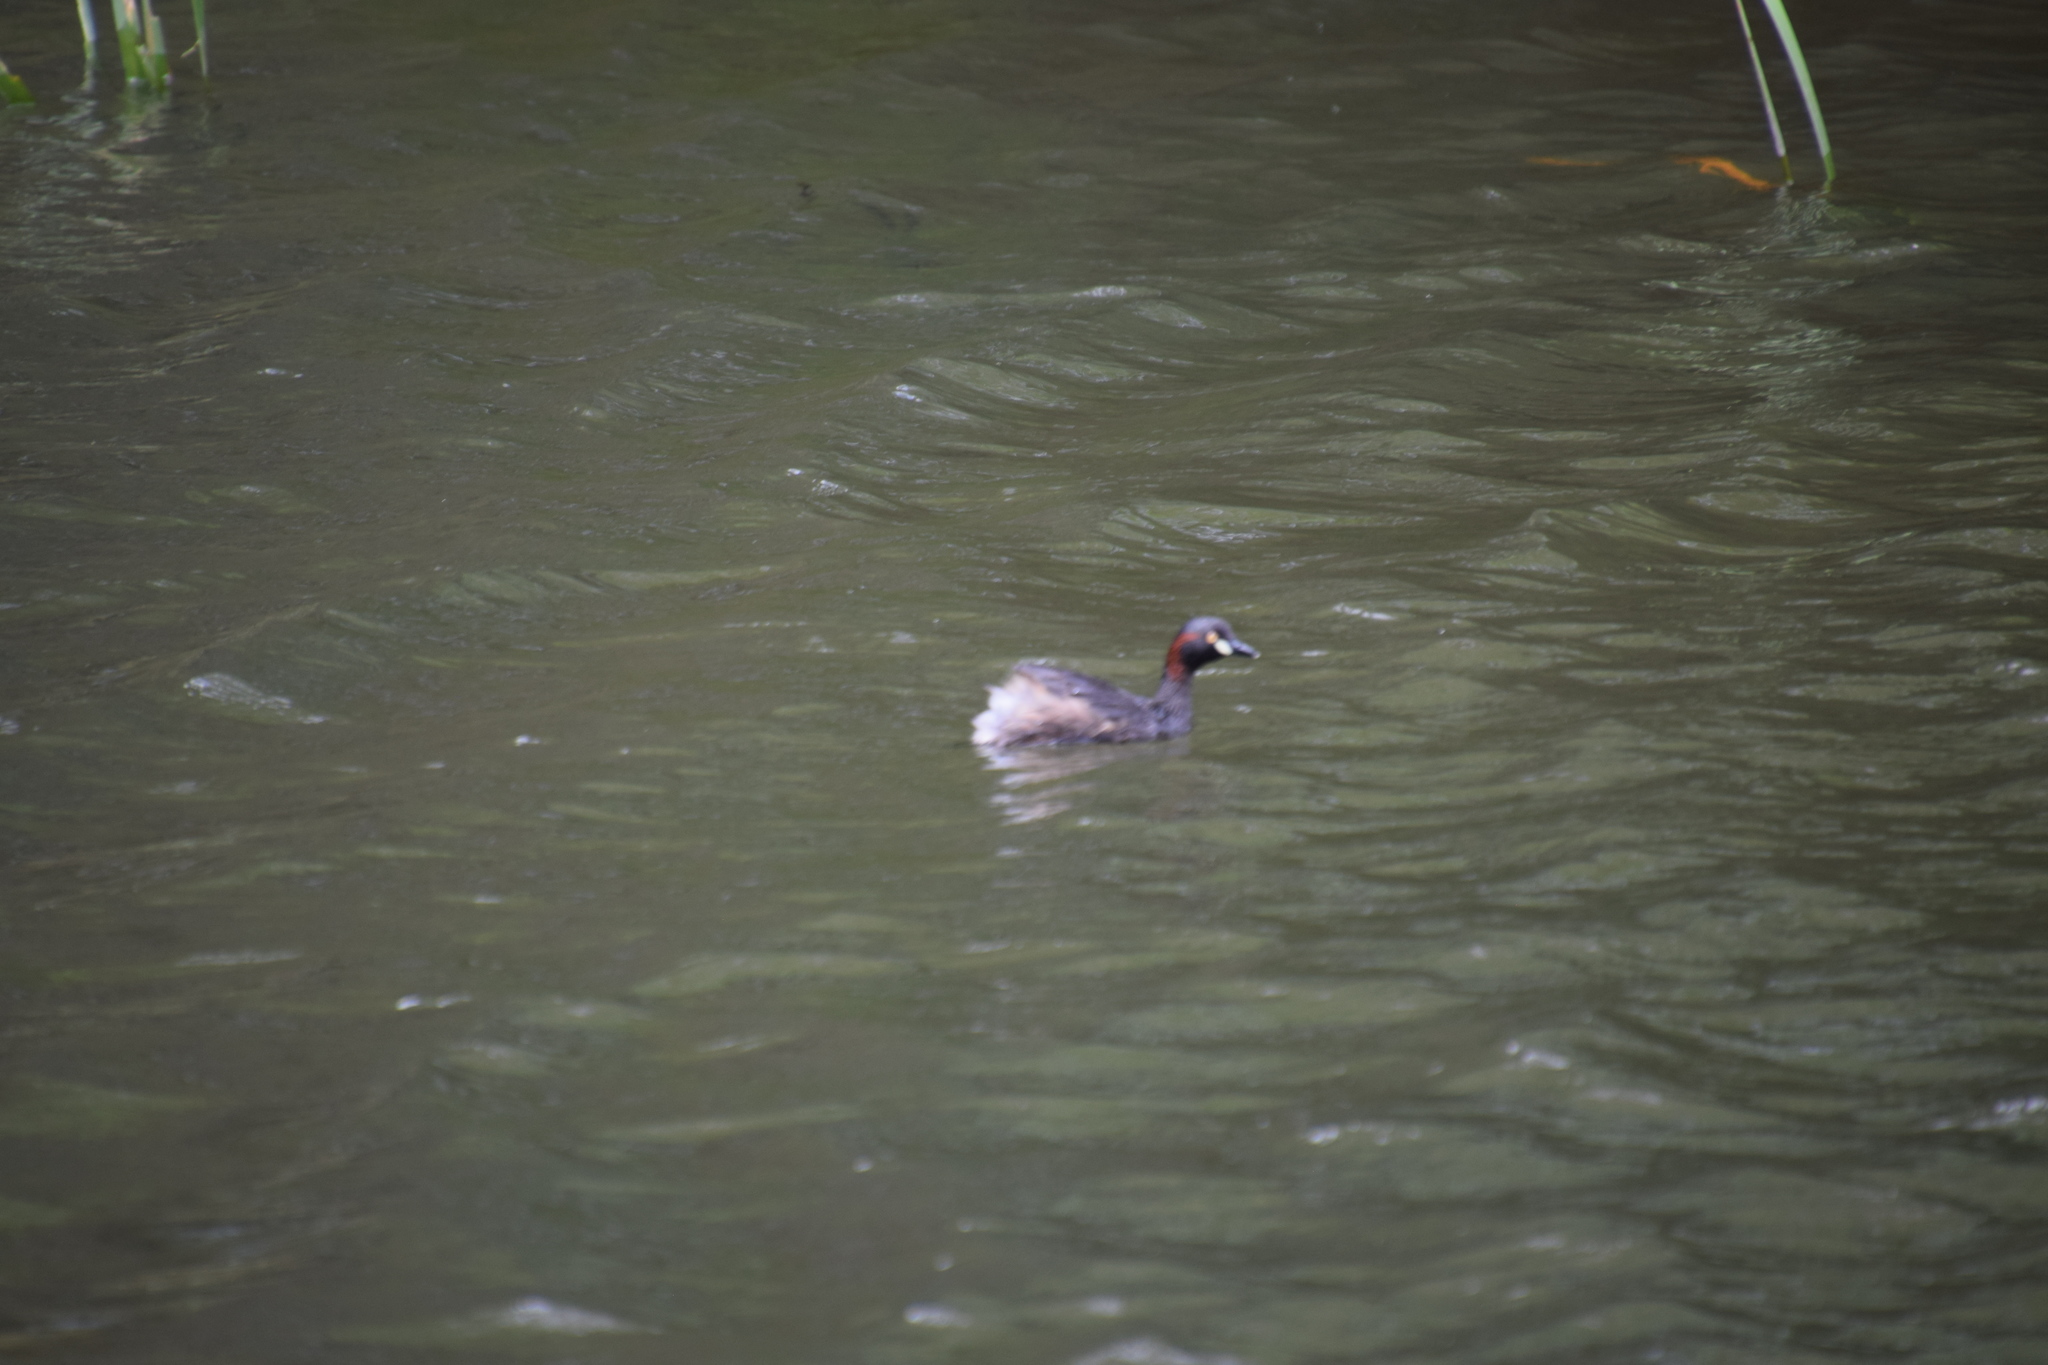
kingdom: Animalia
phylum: Chordata
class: Aves
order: Podicipediformes
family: Podicipedidae
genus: Tachybaptus
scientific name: Tachybaptus novaehollandiae
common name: Australasian grebe
